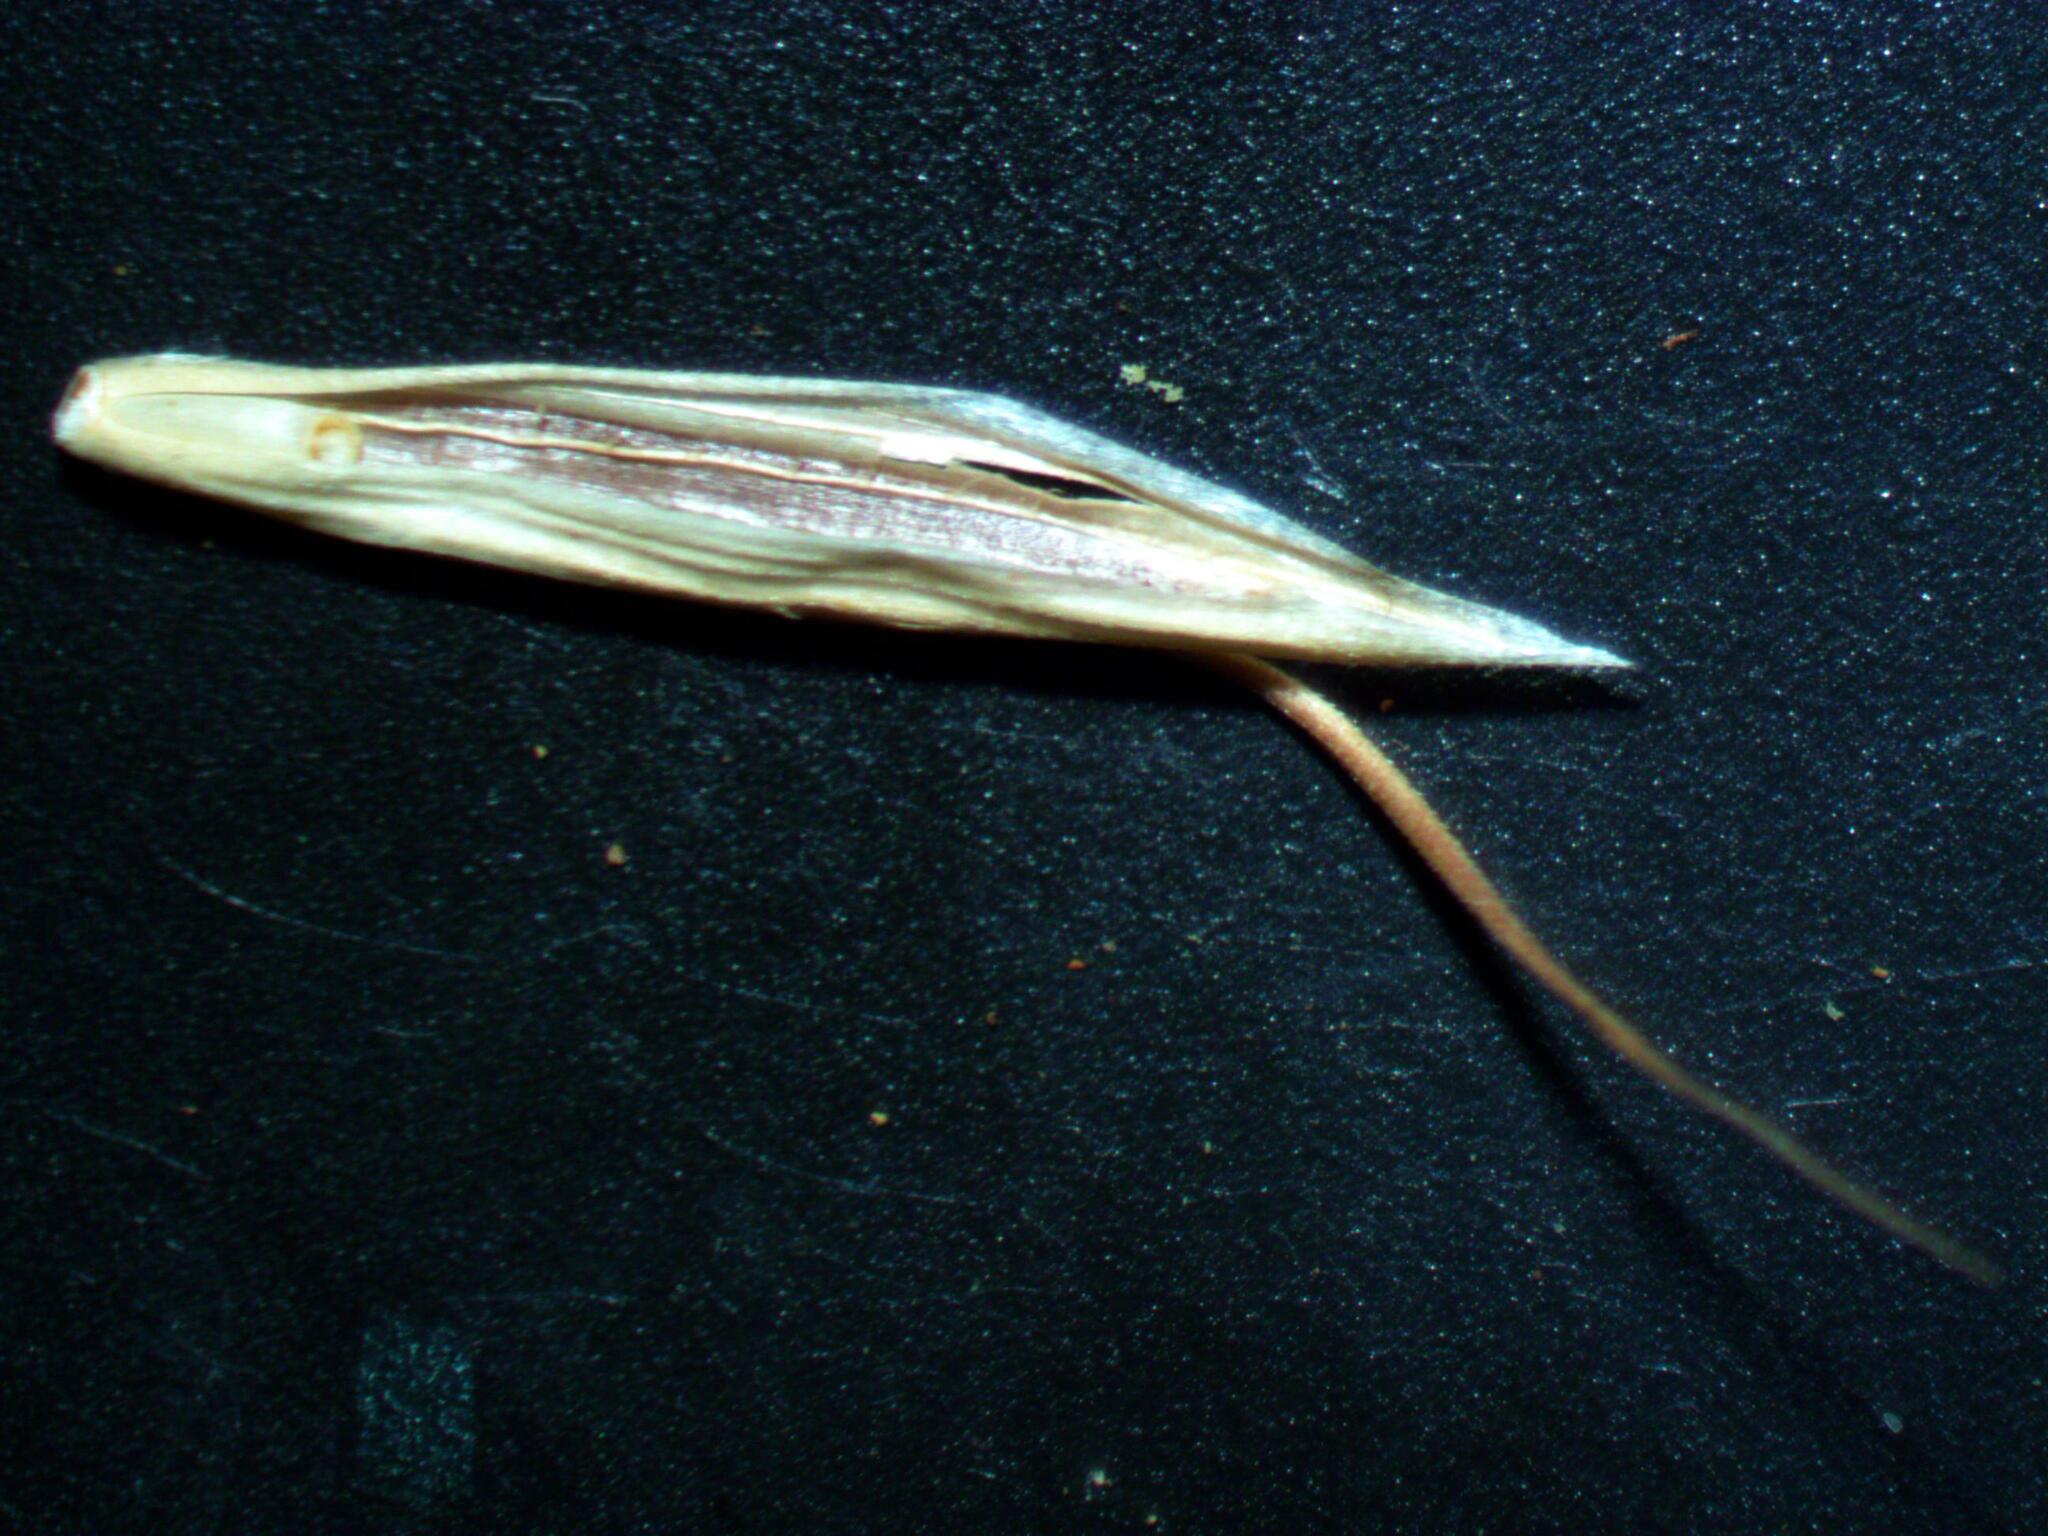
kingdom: Plantae
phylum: Tracheophyta
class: Liliopsida
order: Poales
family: Poaceae
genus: Bromus
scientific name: Bromus alopecuros
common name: Weedy brome
